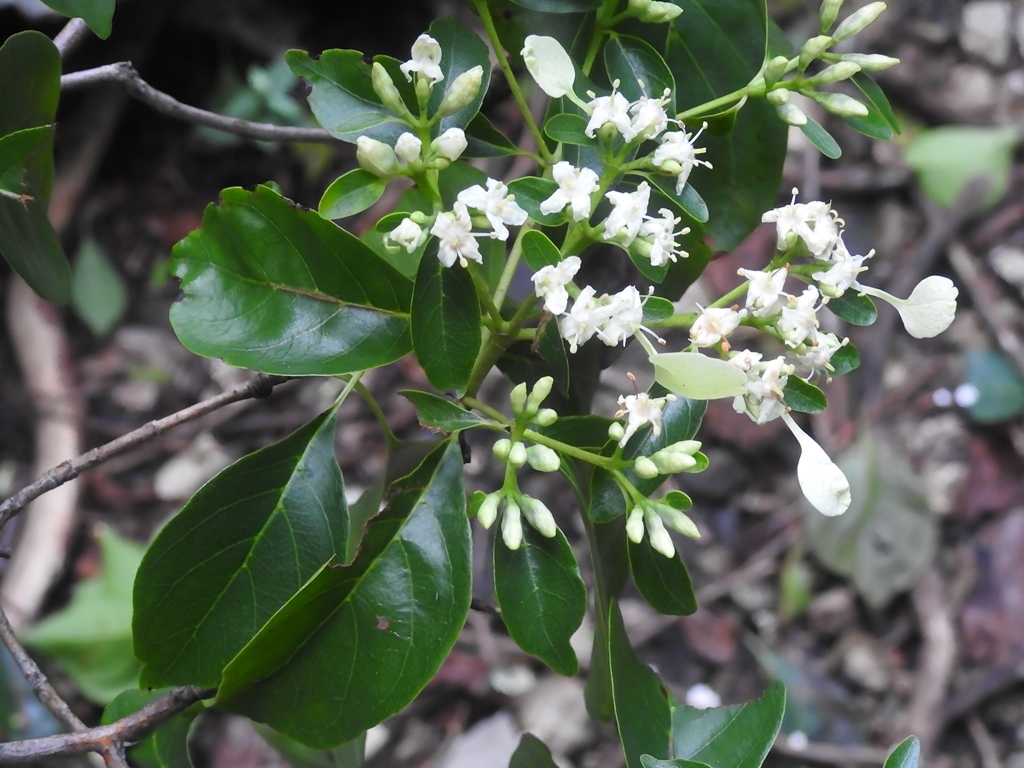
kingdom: Plantae
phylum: Tracheophyta
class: Magnoliopsida
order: Gentianales
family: Rubiaceae
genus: Calycophyllum
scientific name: Calycophyllum candidissimum
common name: Dagame
